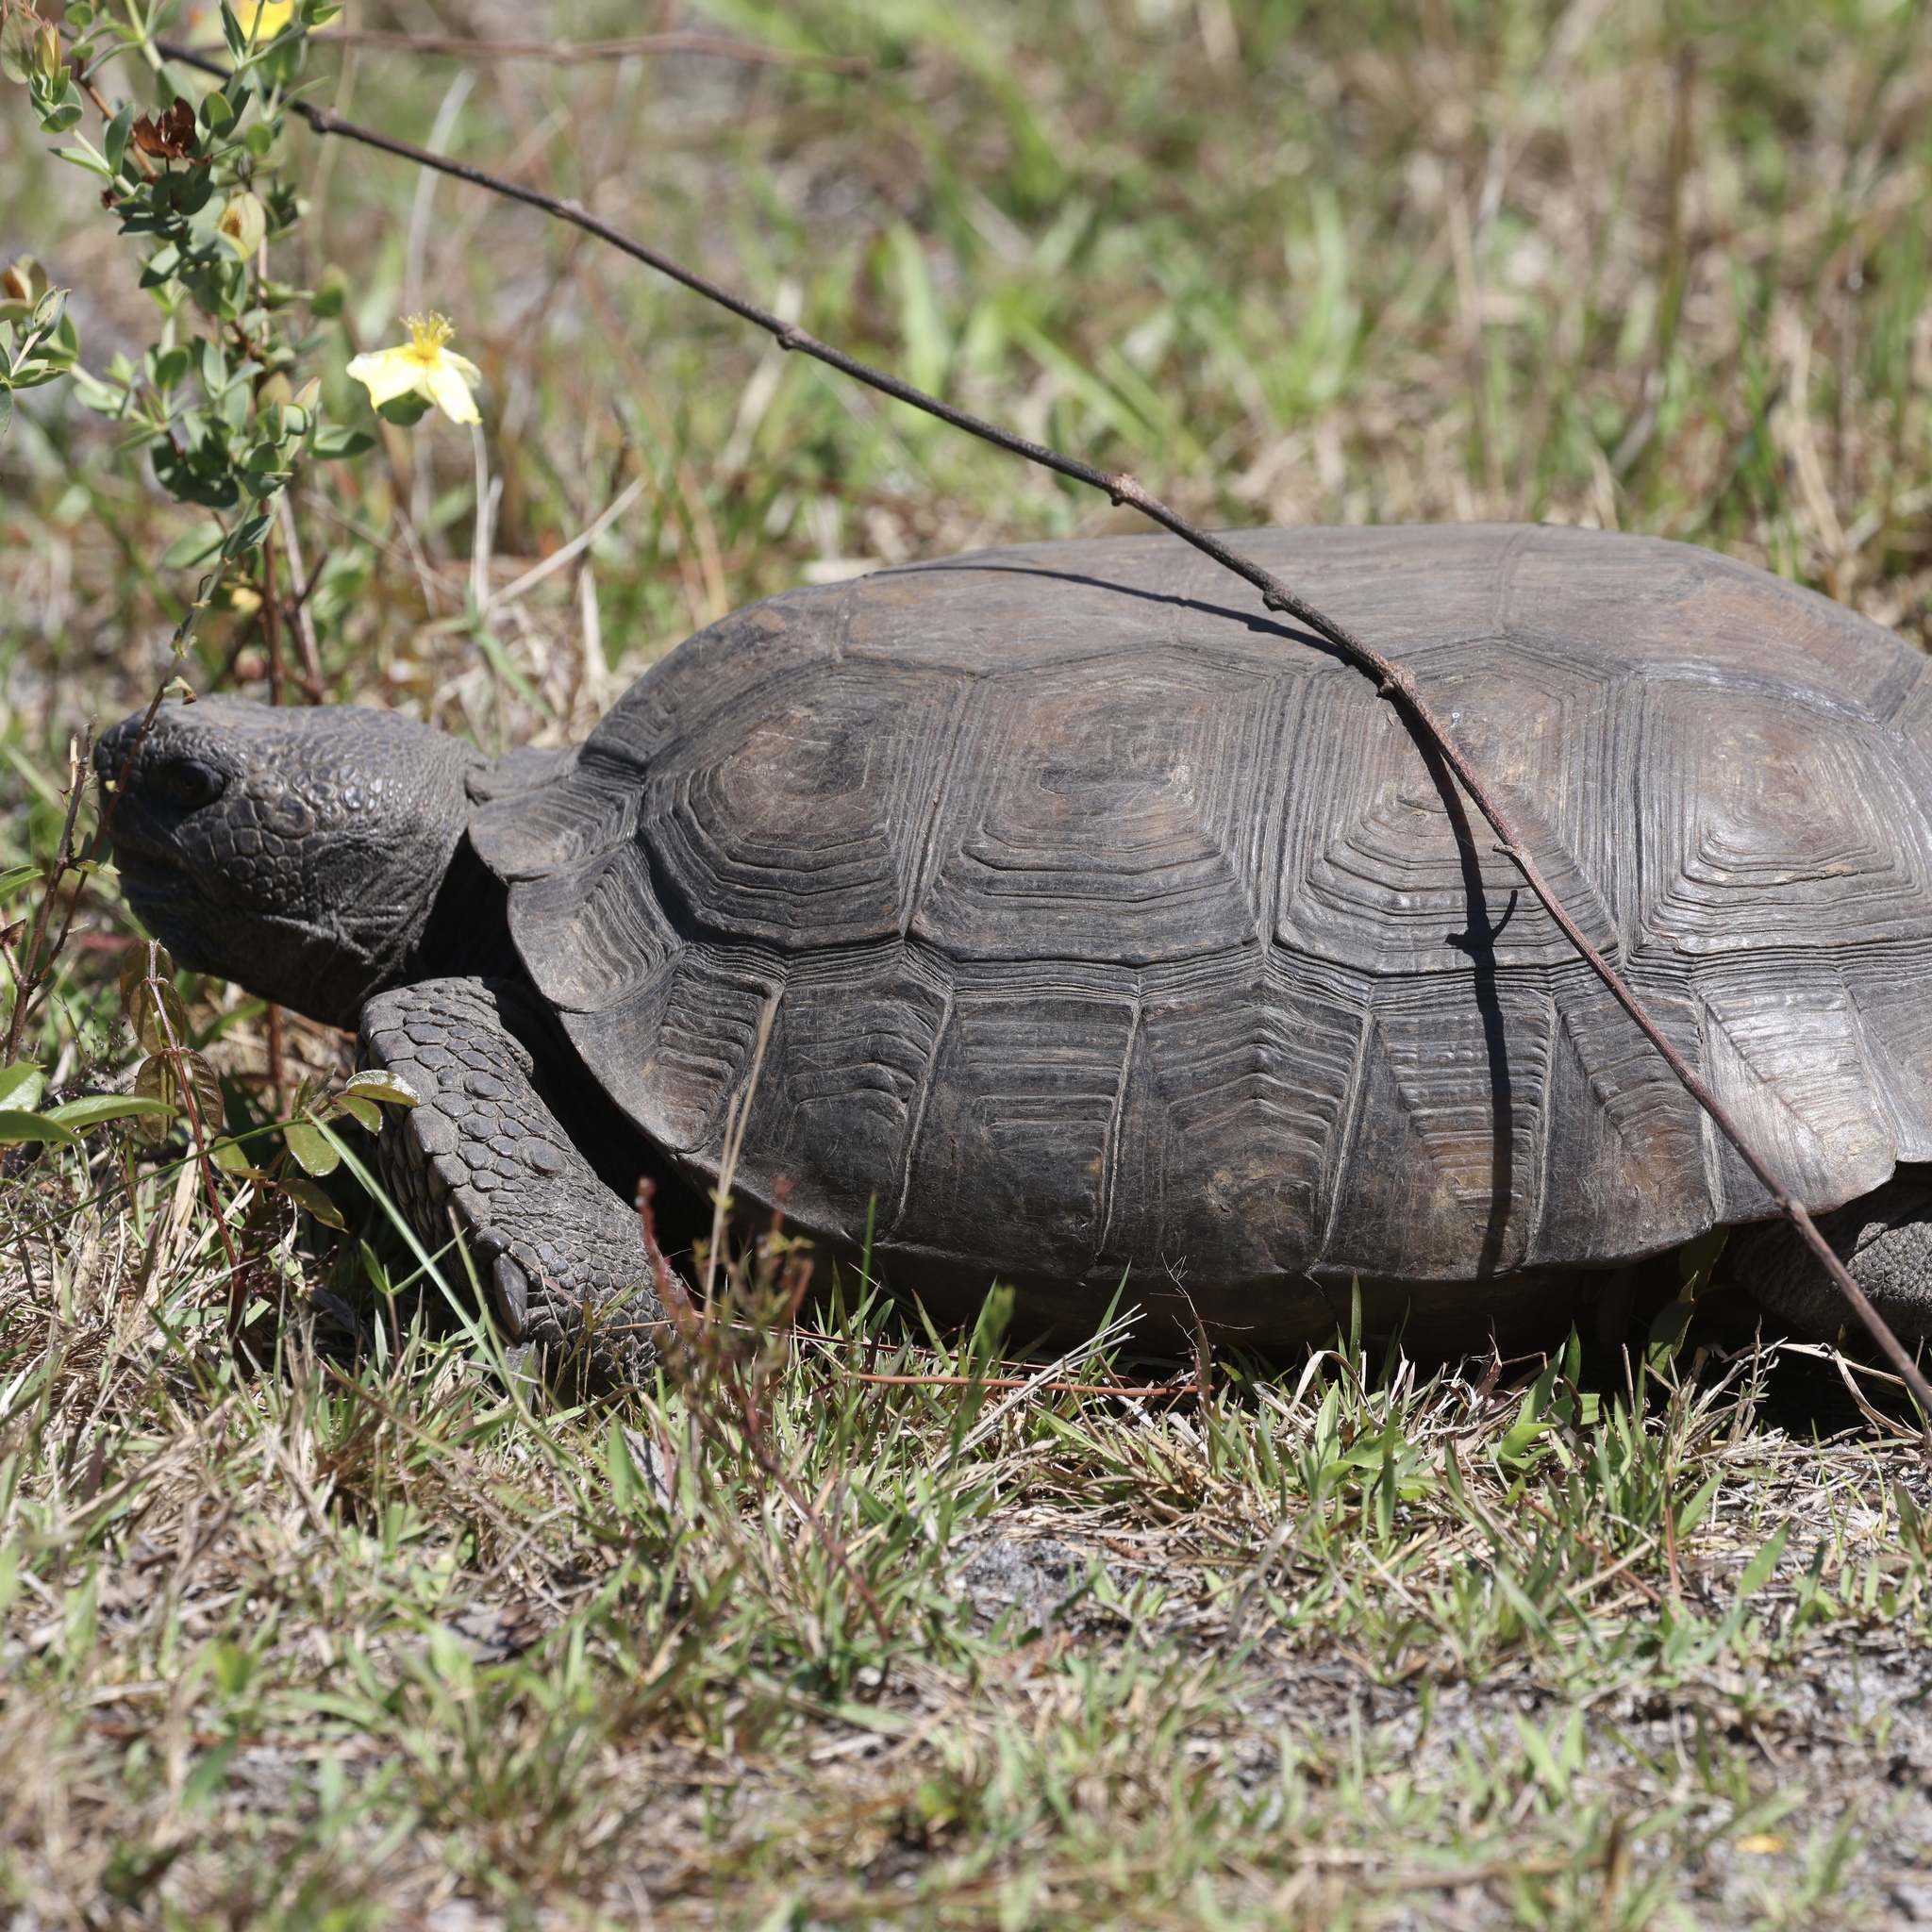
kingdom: Animalia
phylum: Chordata
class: Testudines
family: Testudinidae
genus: Gopherus
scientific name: Gopherus polyphemus
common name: Florida gopher tortoise
